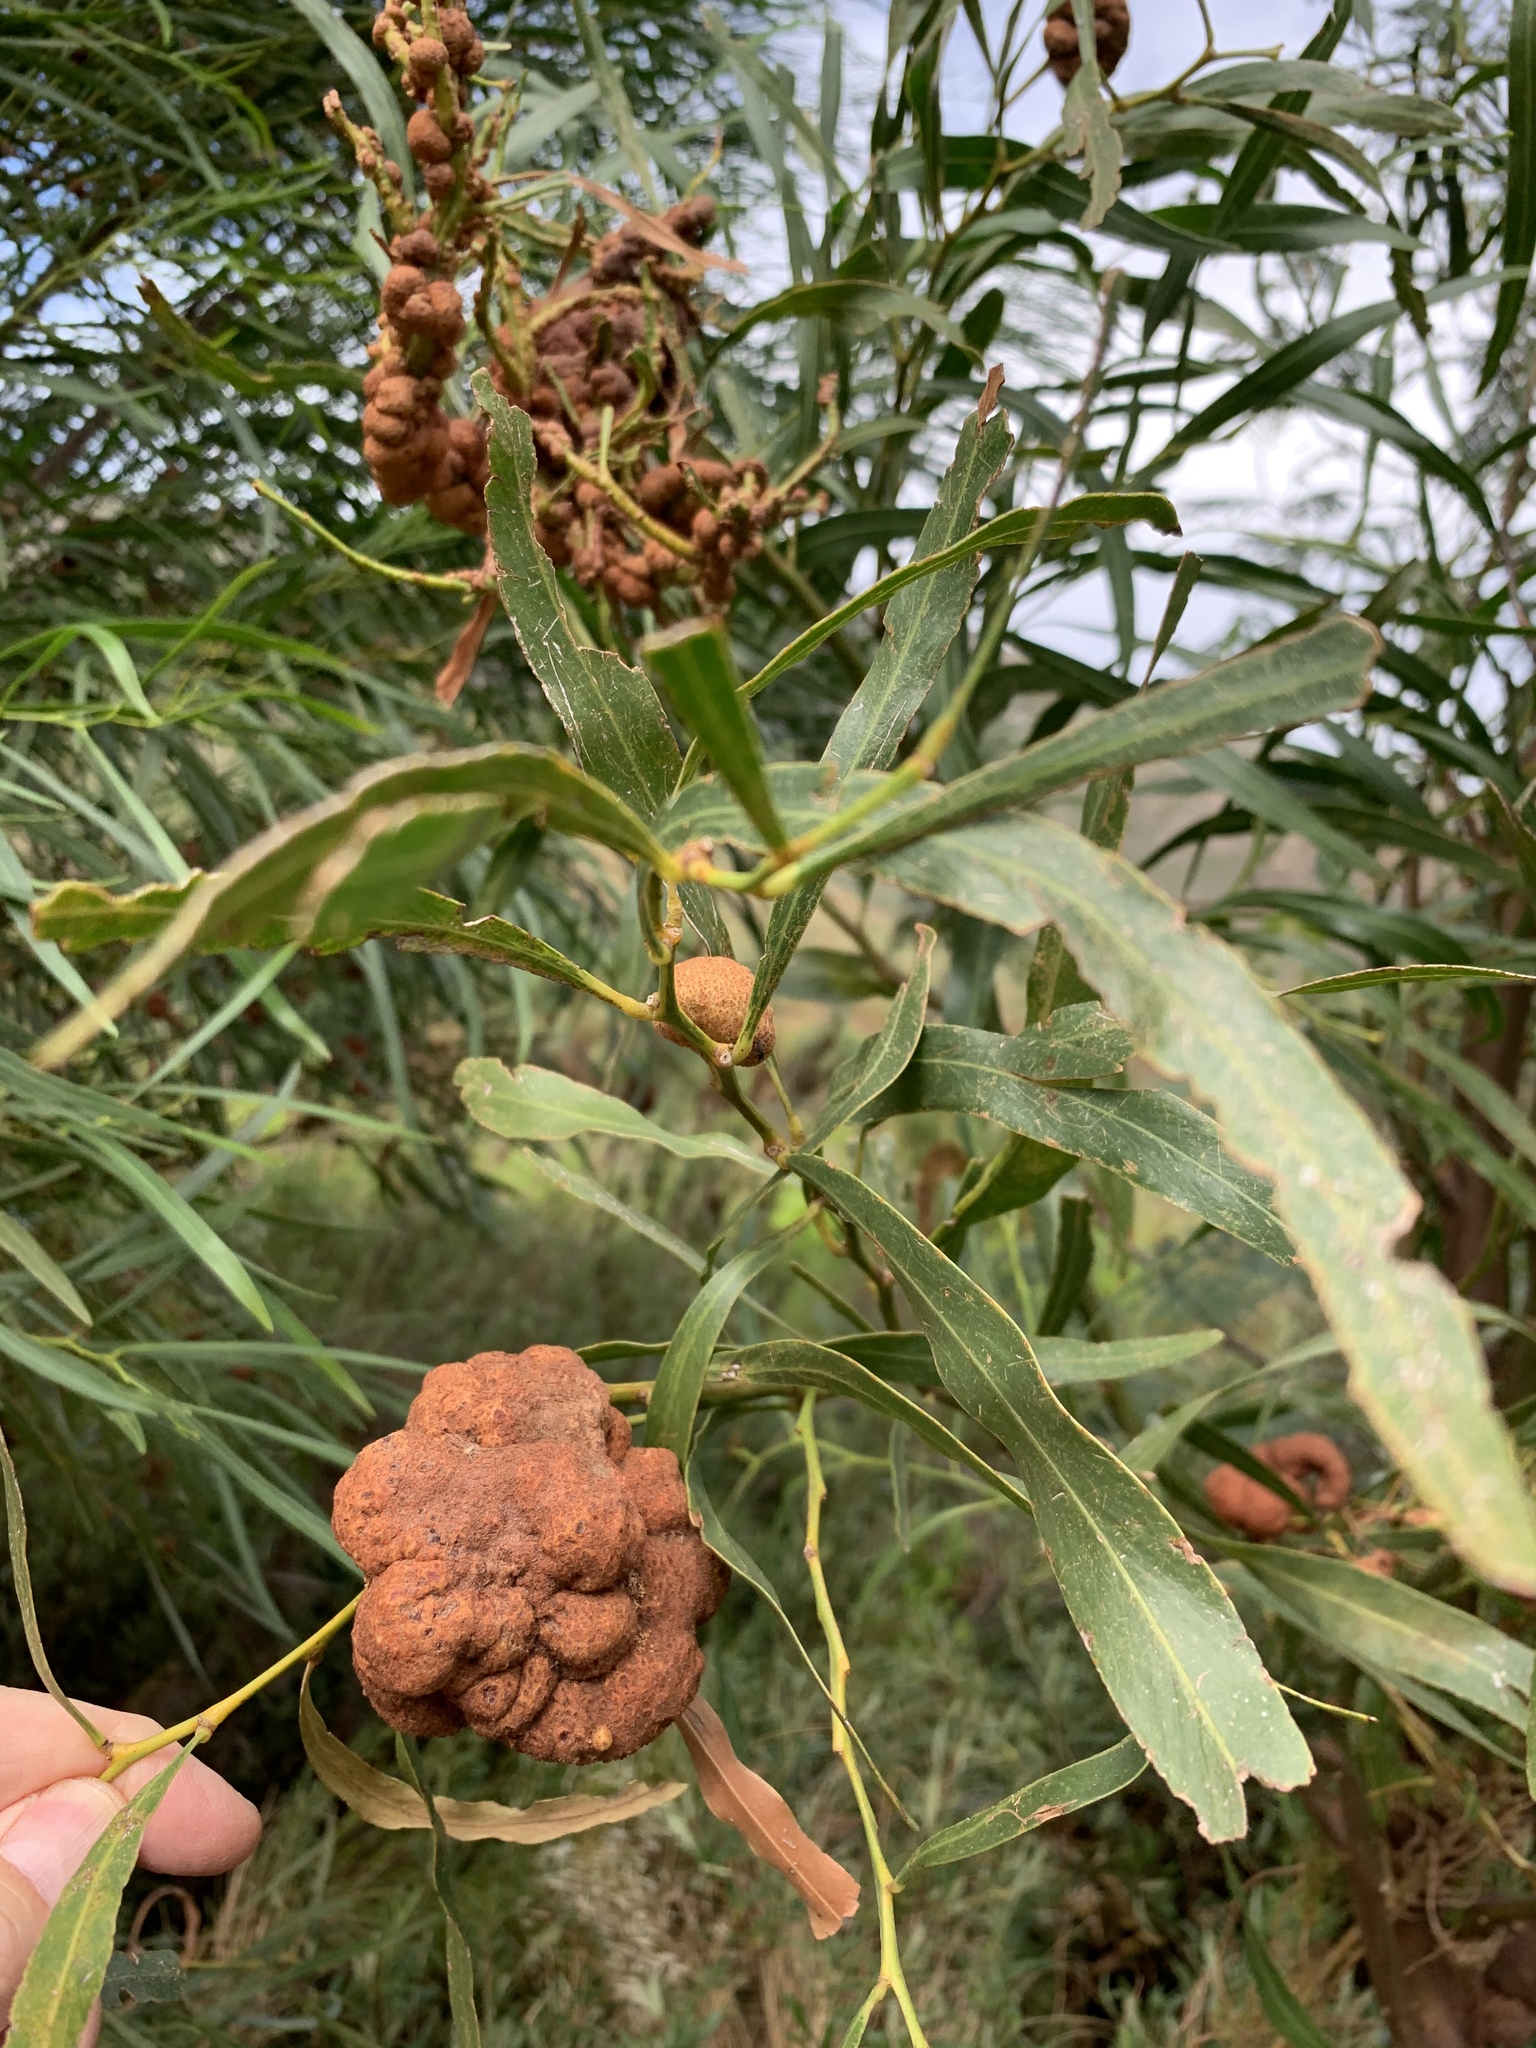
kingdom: Fungi
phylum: Basidiomycota
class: Pucciniomycetes
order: Pucciniales
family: Uromycladiaceae
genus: Uromycladium
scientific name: Uromycladium morrisii
